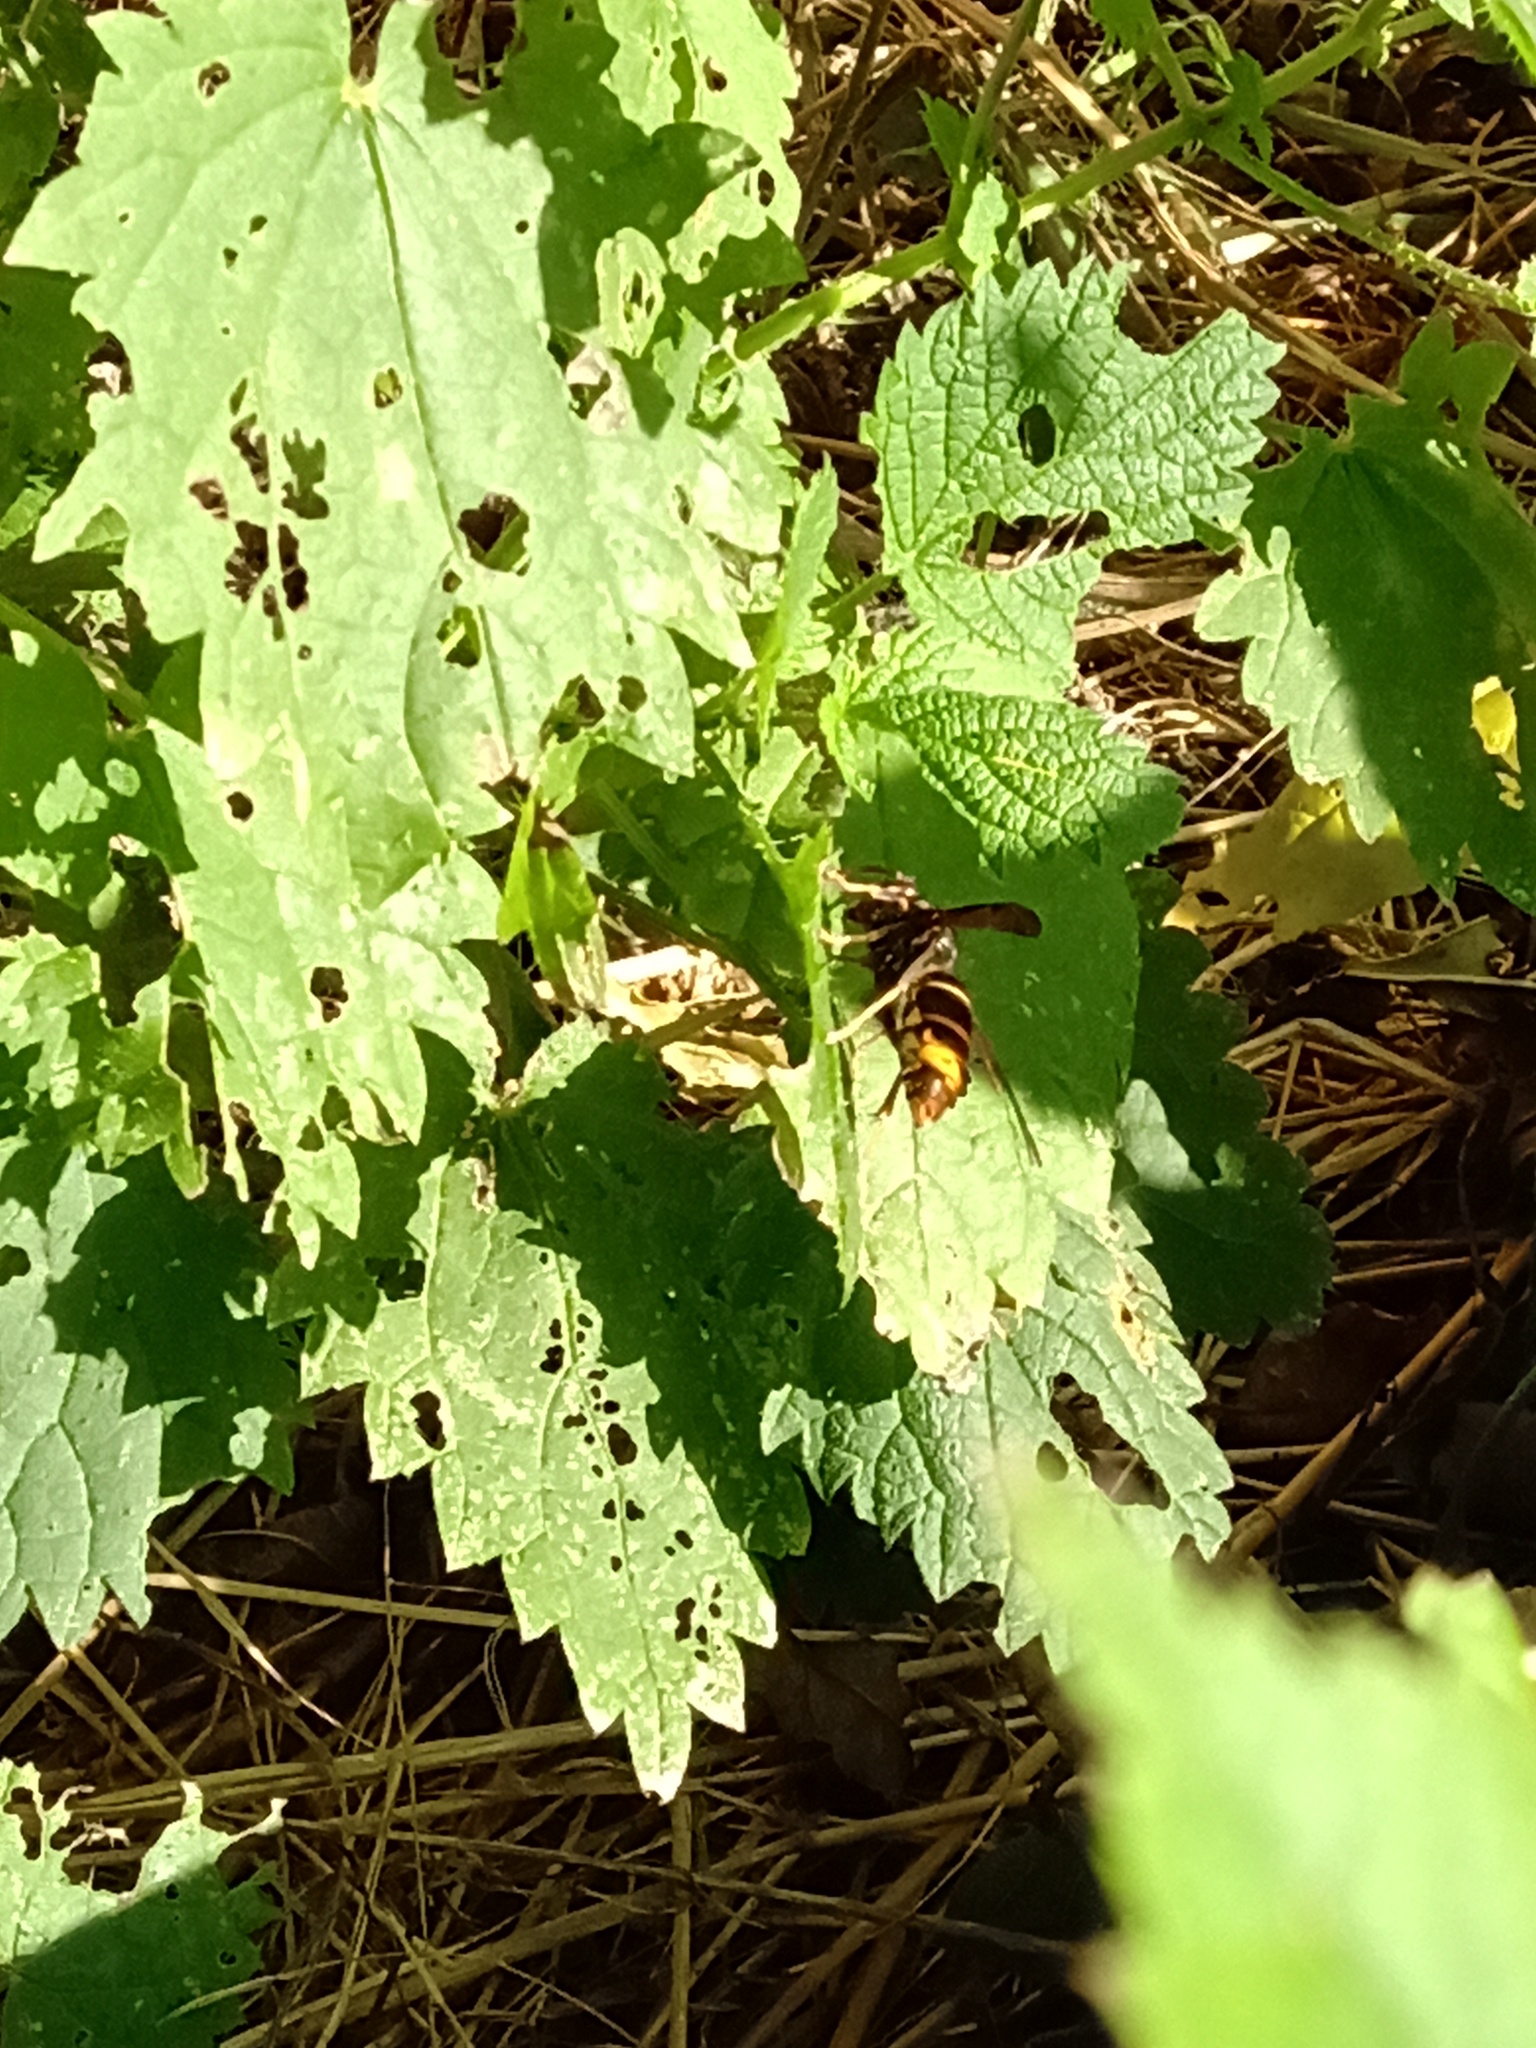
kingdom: Animalia
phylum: Arthropoda
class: Insecta
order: Hymenoptera
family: Vespidae
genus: Vespa
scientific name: Vespa velutina
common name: Asian hornet
